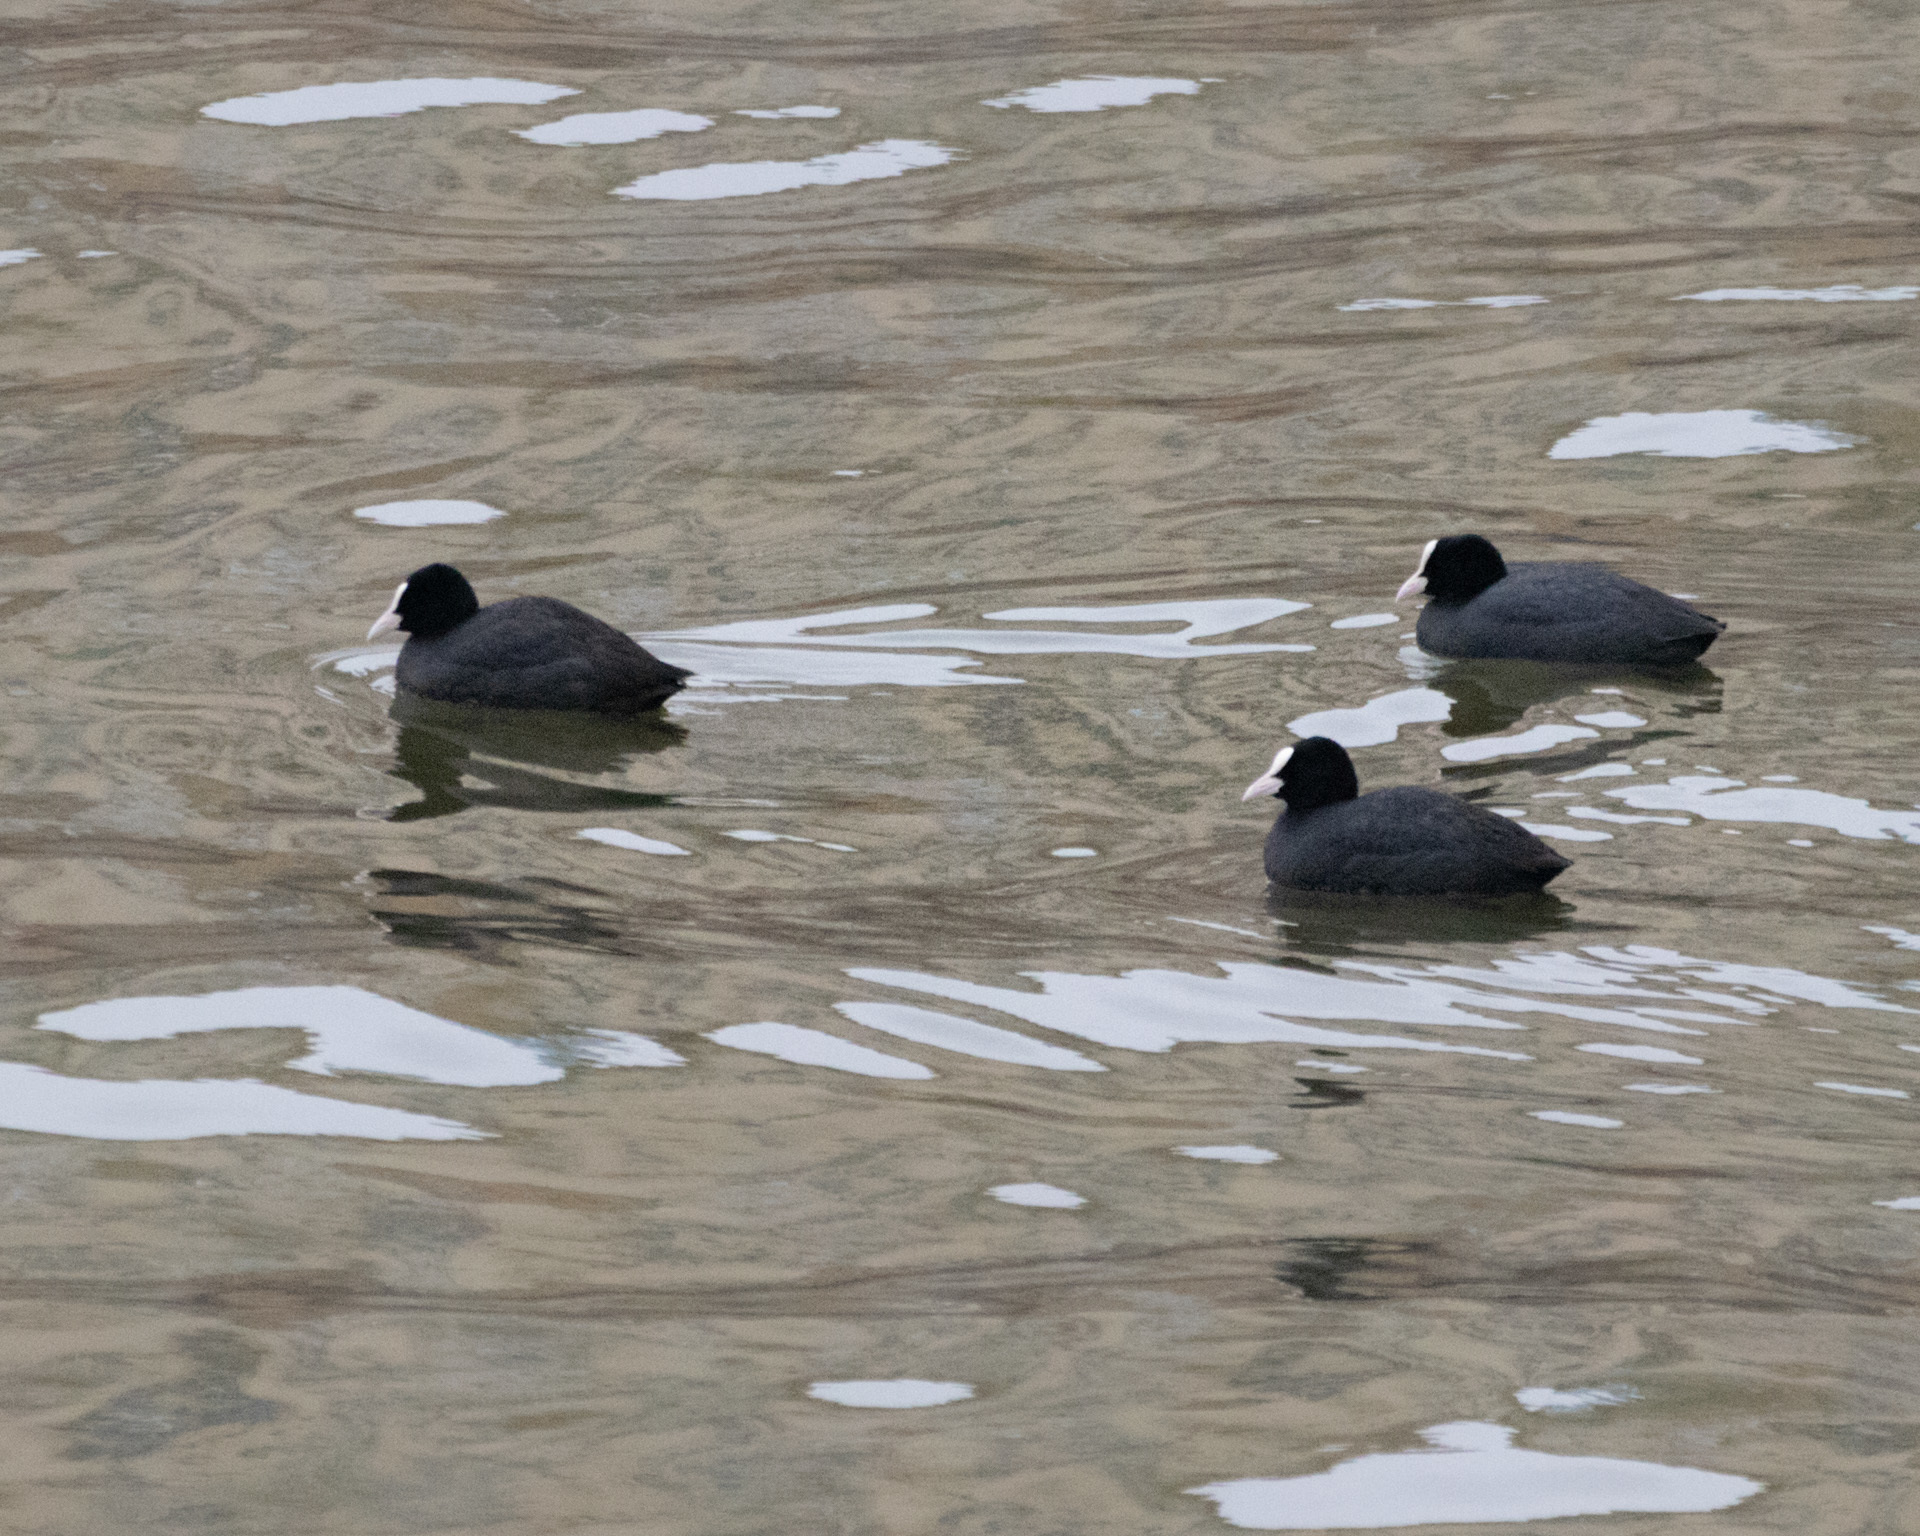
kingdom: Animalia
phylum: Chordata
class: Aves
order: Gruiformes
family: Rallidae
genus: Fulica
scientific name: Fulica atra
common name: Eurasian coot
